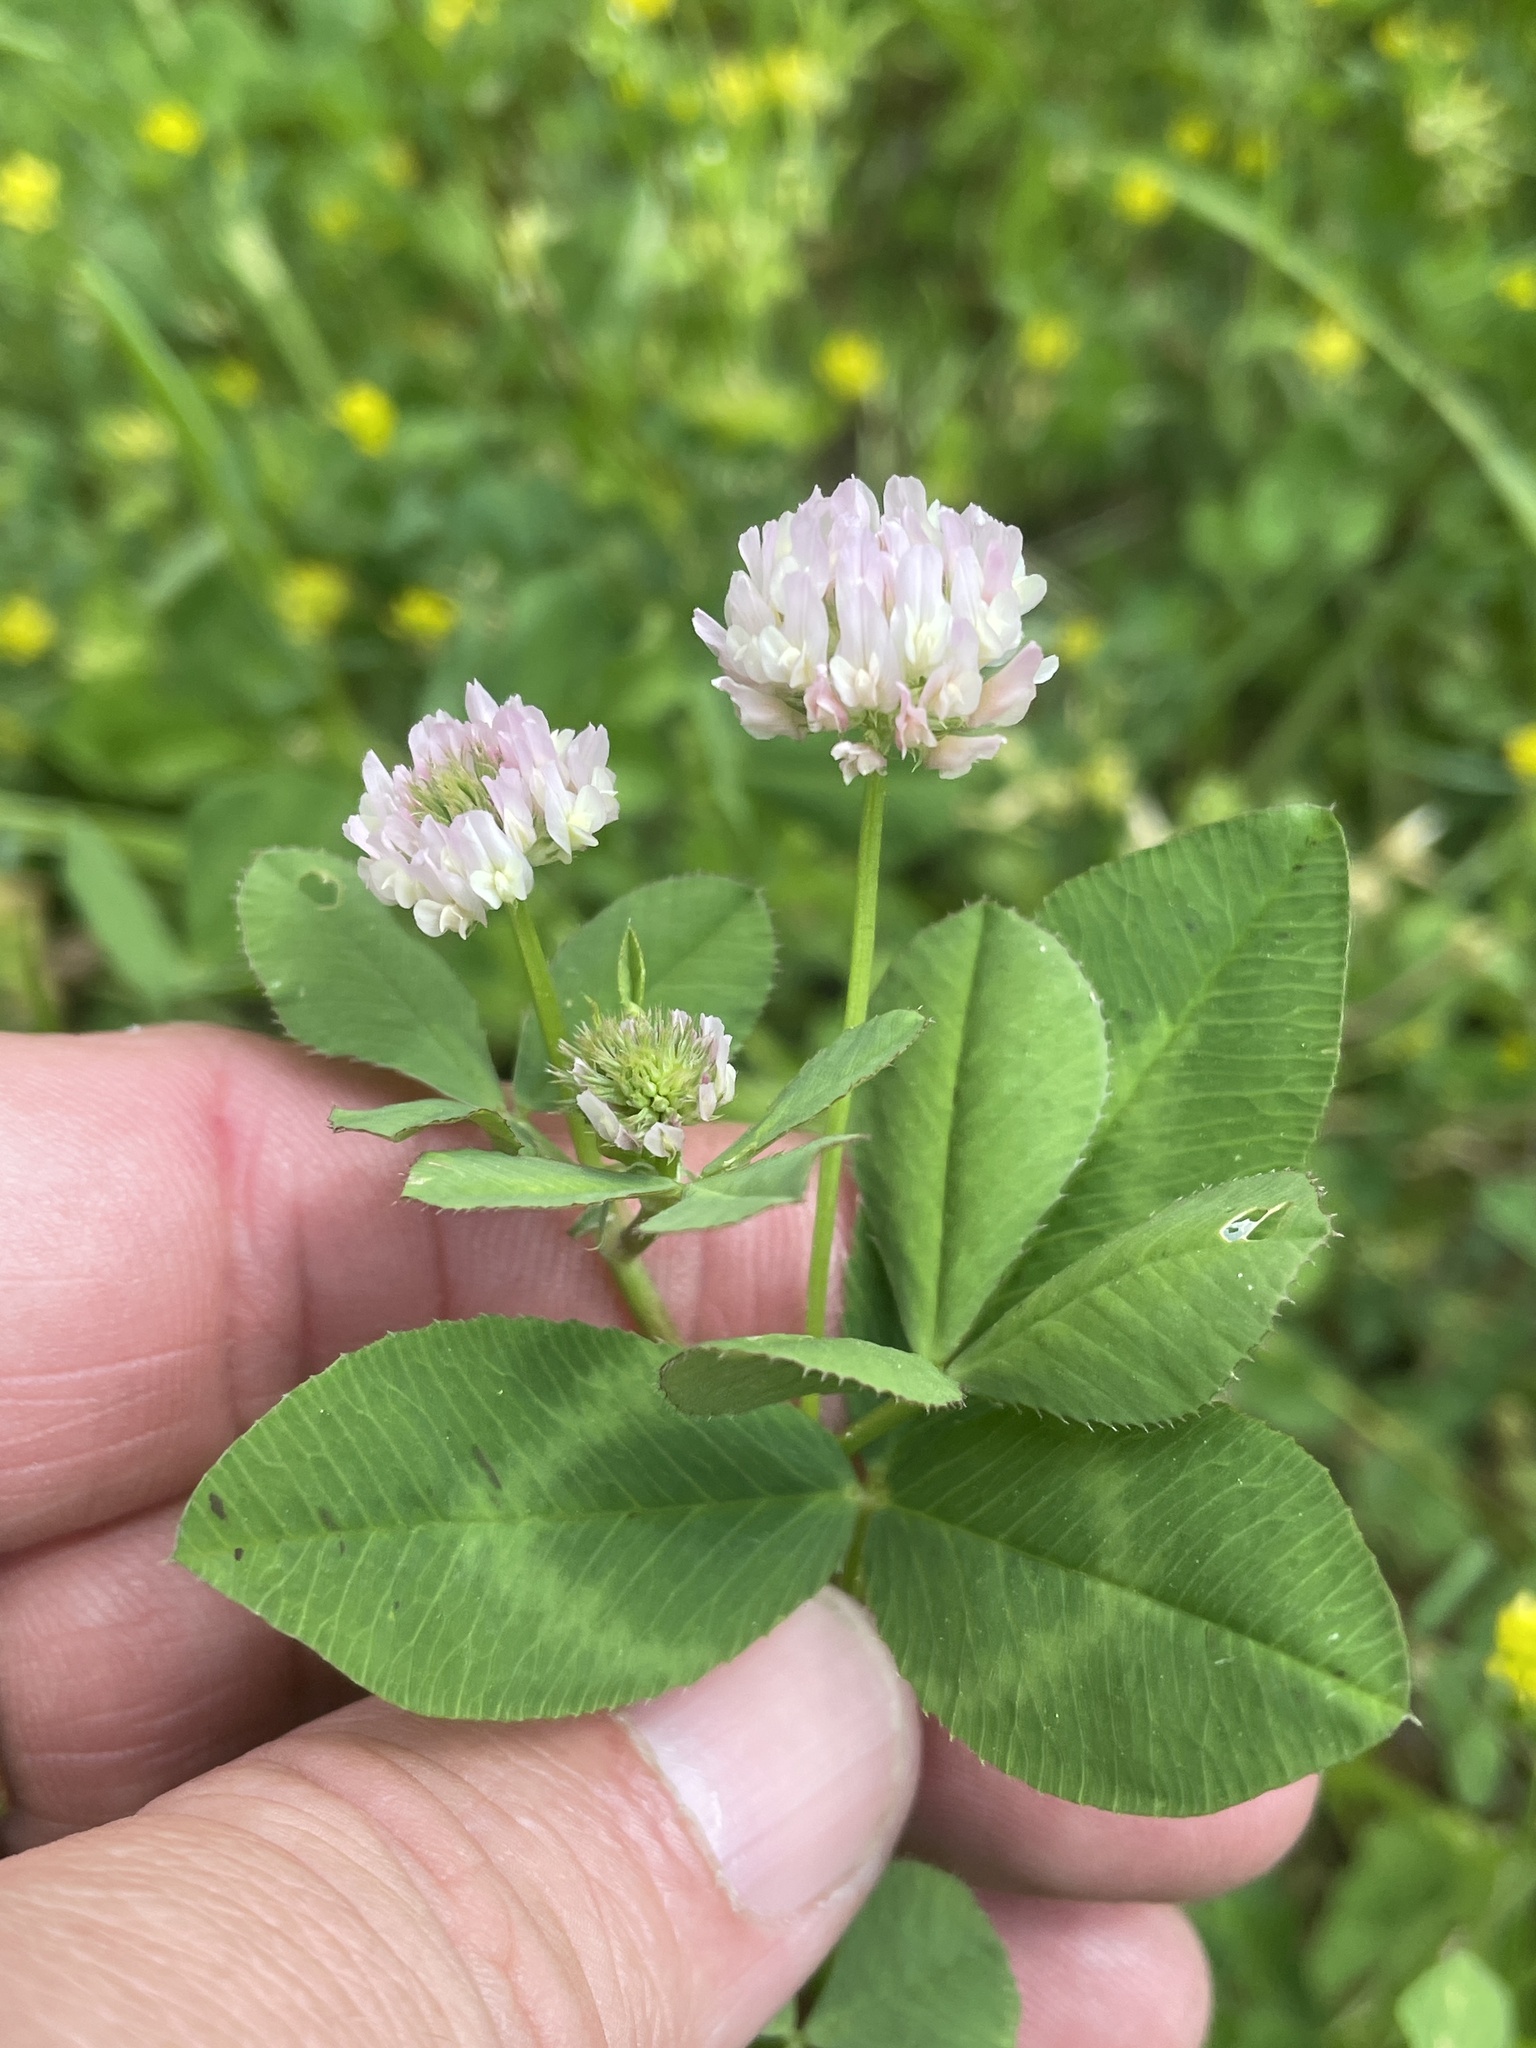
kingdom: Plantae
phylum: Tracheophyta
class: Magnoliopsida
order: Fabales
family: Fabaceae
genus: Trifolium
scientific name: Trifolium vesiculosum
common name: Arrowleaf clover
